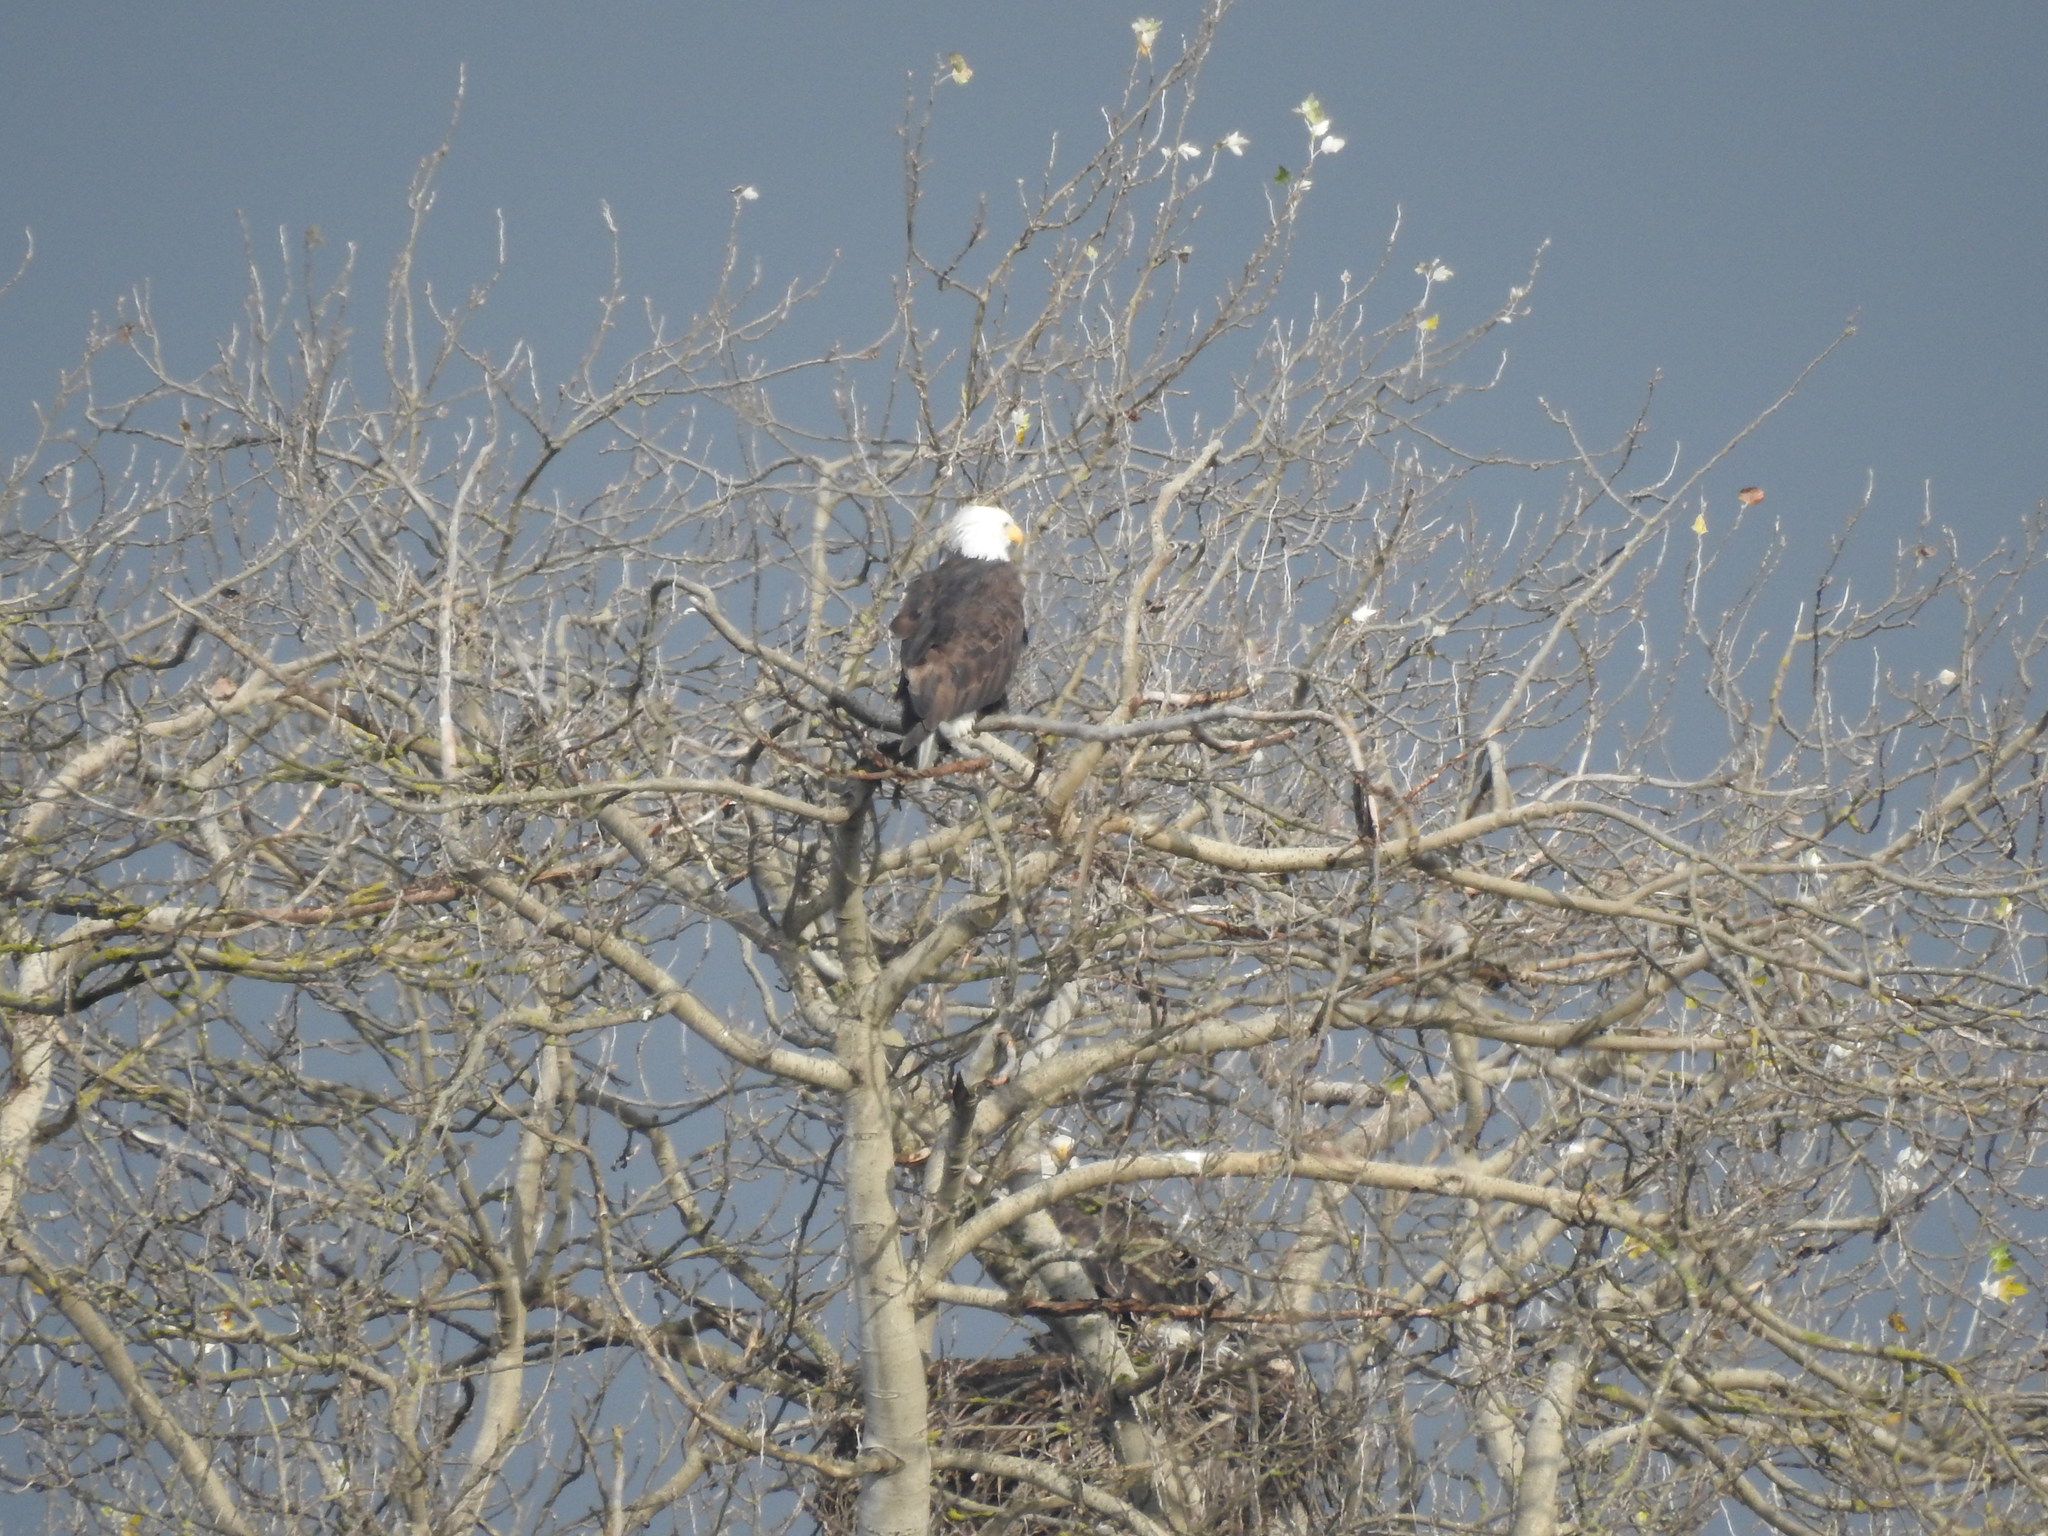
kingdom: Animalia
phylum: Chordata
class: Aves
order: Accipitriformes
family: Accipitridae
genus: Haliaeetus
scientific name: Haliaeetus leucocephalus
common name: Bald eagle
